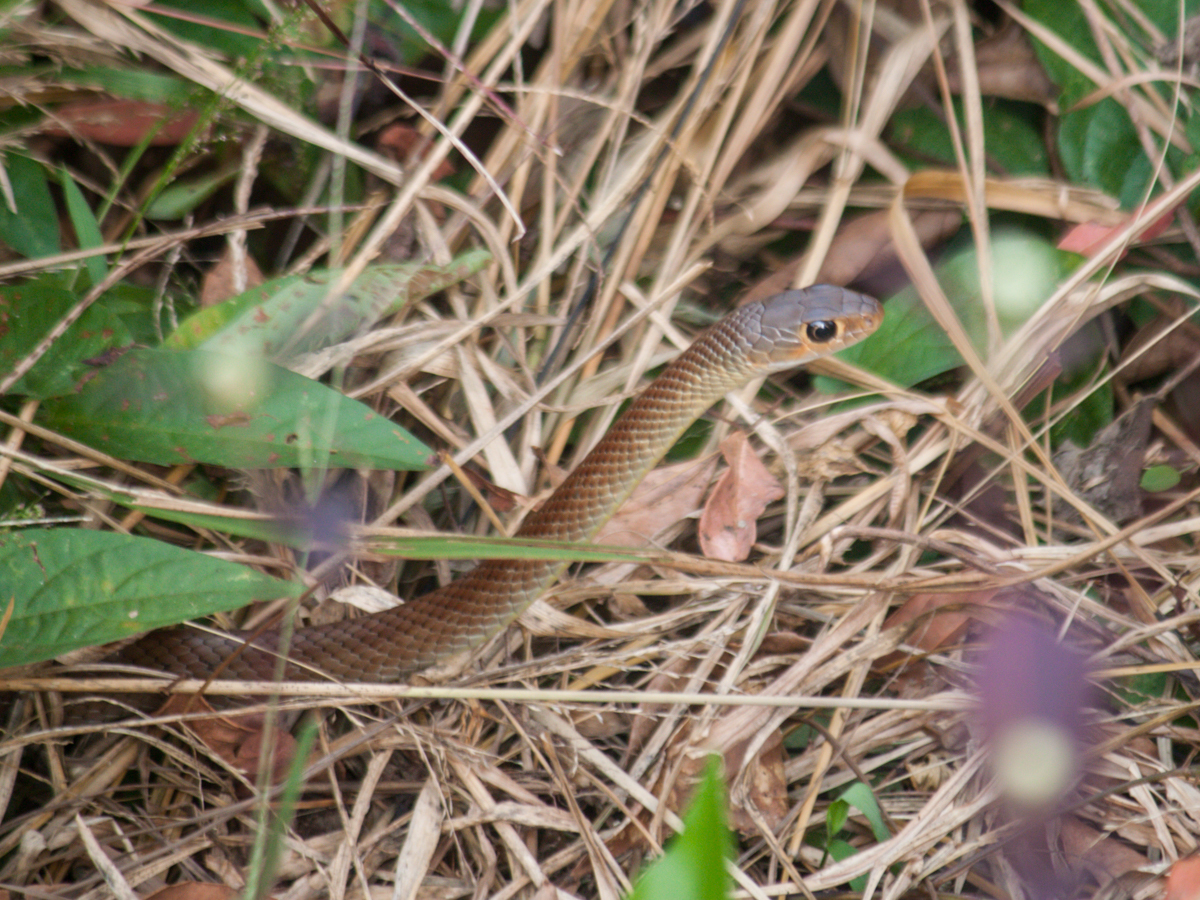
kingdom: Animalia
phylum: Chordata
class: Squamata
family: Colubridae
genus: Ptyas
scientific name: Ptyas korros
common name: Indo-chinese rat snake
